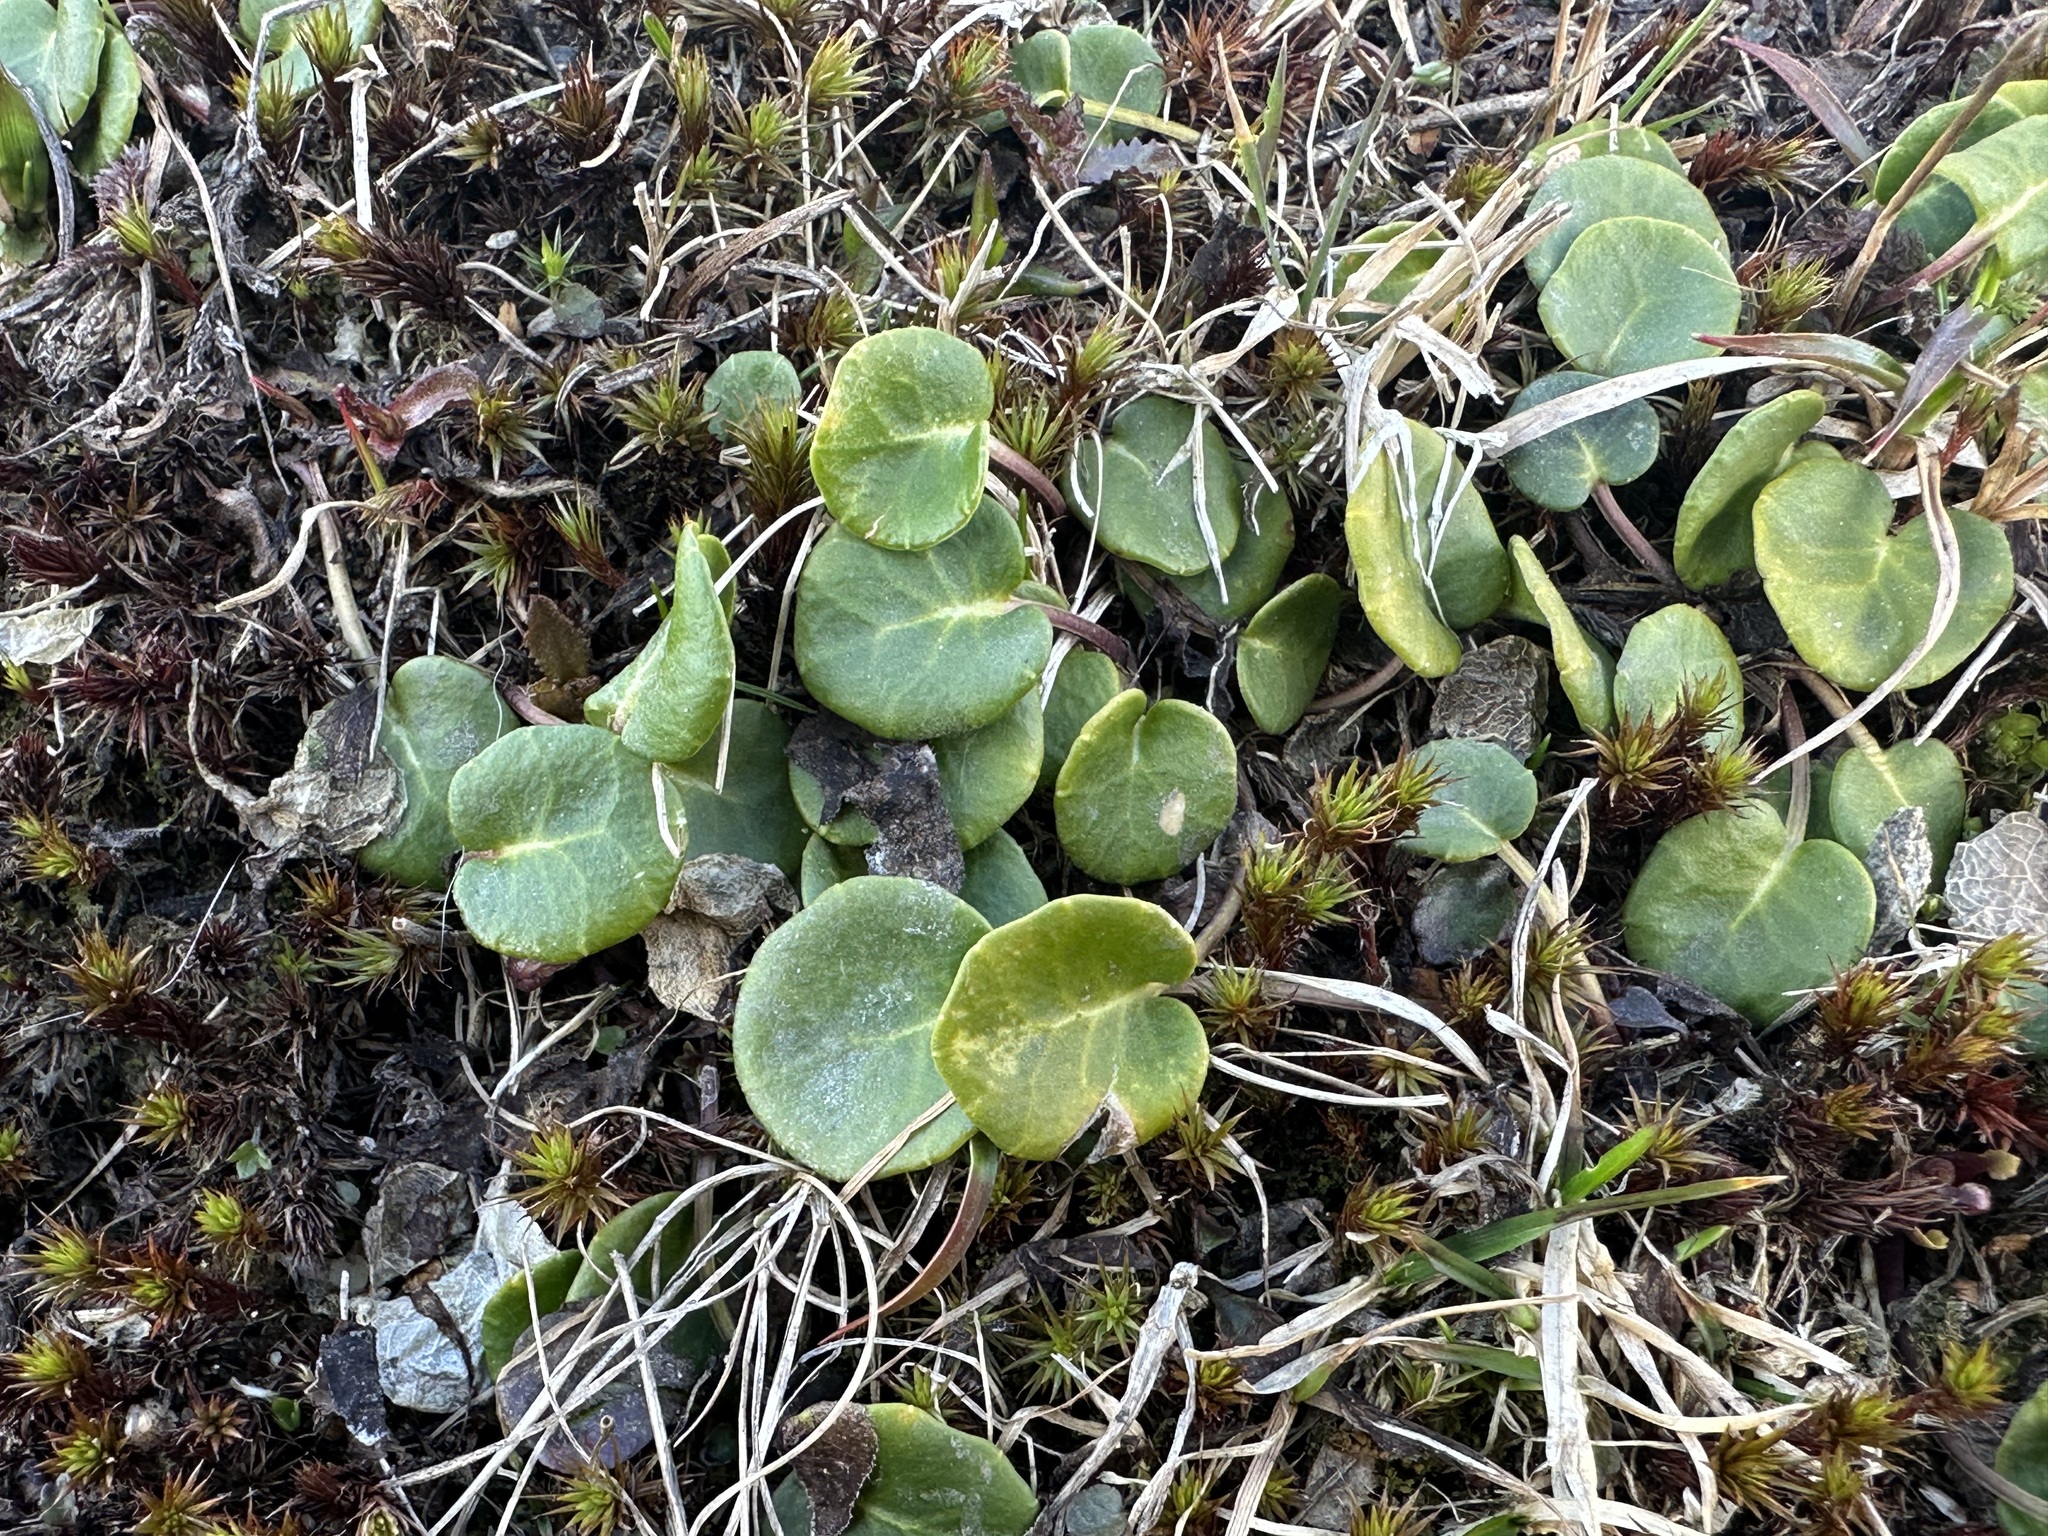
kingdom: Plantae
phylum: Tracheophyta
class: Magnoliopsida
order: Ericales
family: Primulaceae
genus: Soldanella
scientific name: Soldanella alpina
